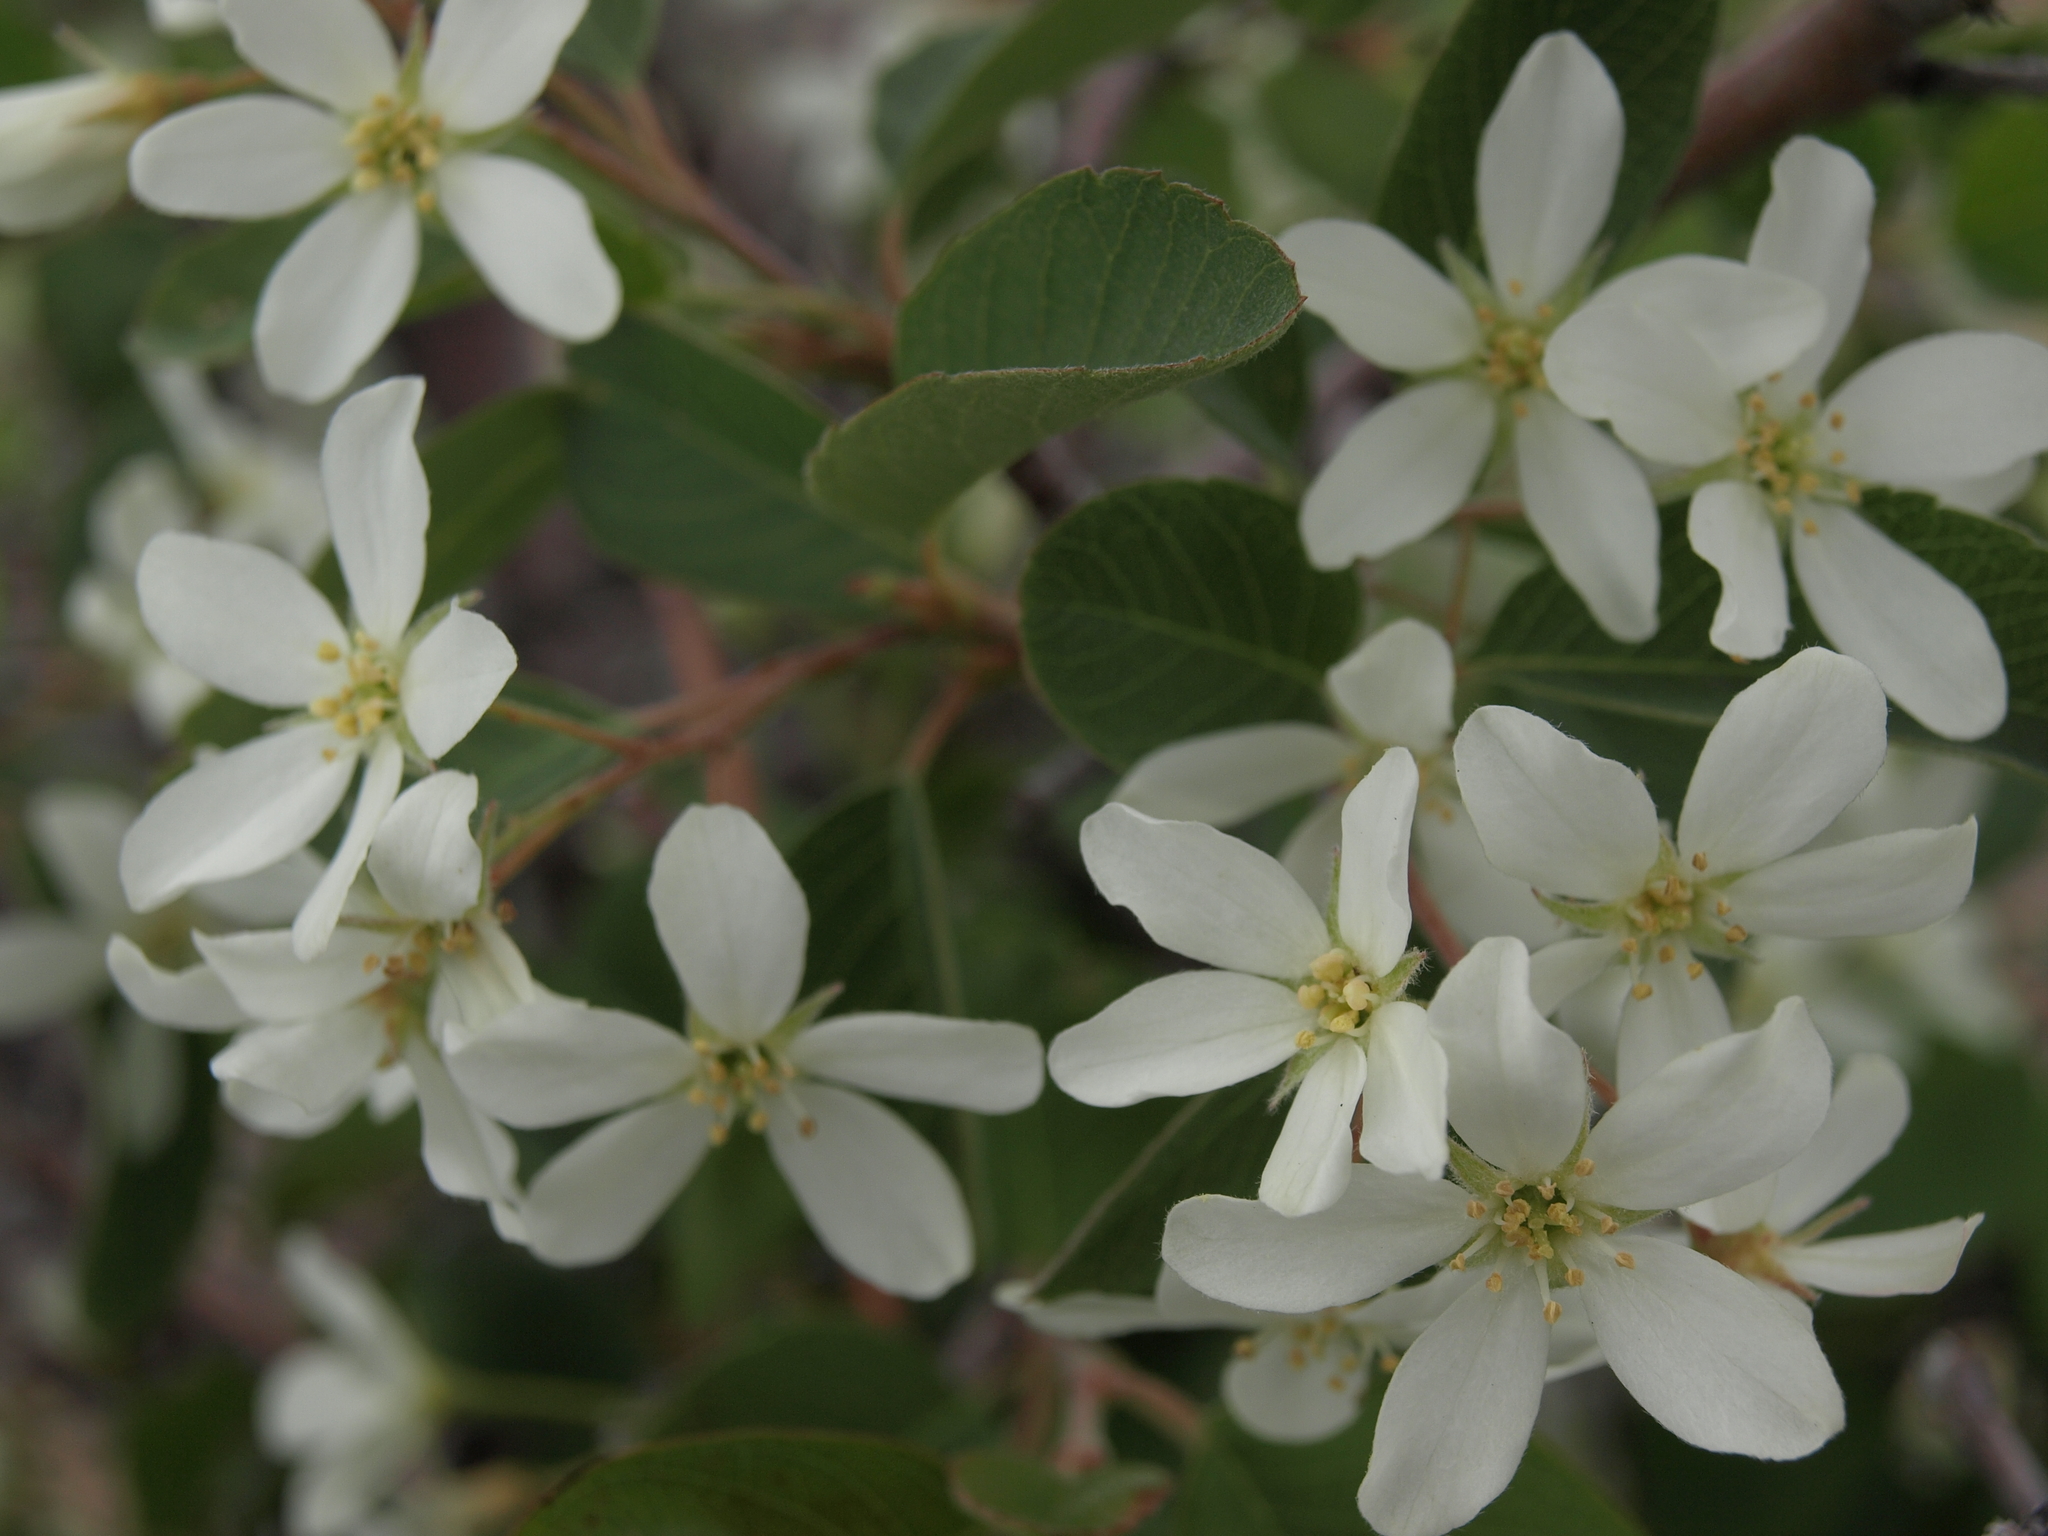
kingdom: Plantae
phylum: Tracheophyta
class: Magnoliopsida
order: Rosales
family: Rosaceae
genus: Amelanchier
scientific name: Amelanchier utahensis
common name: Utah serviceberry
